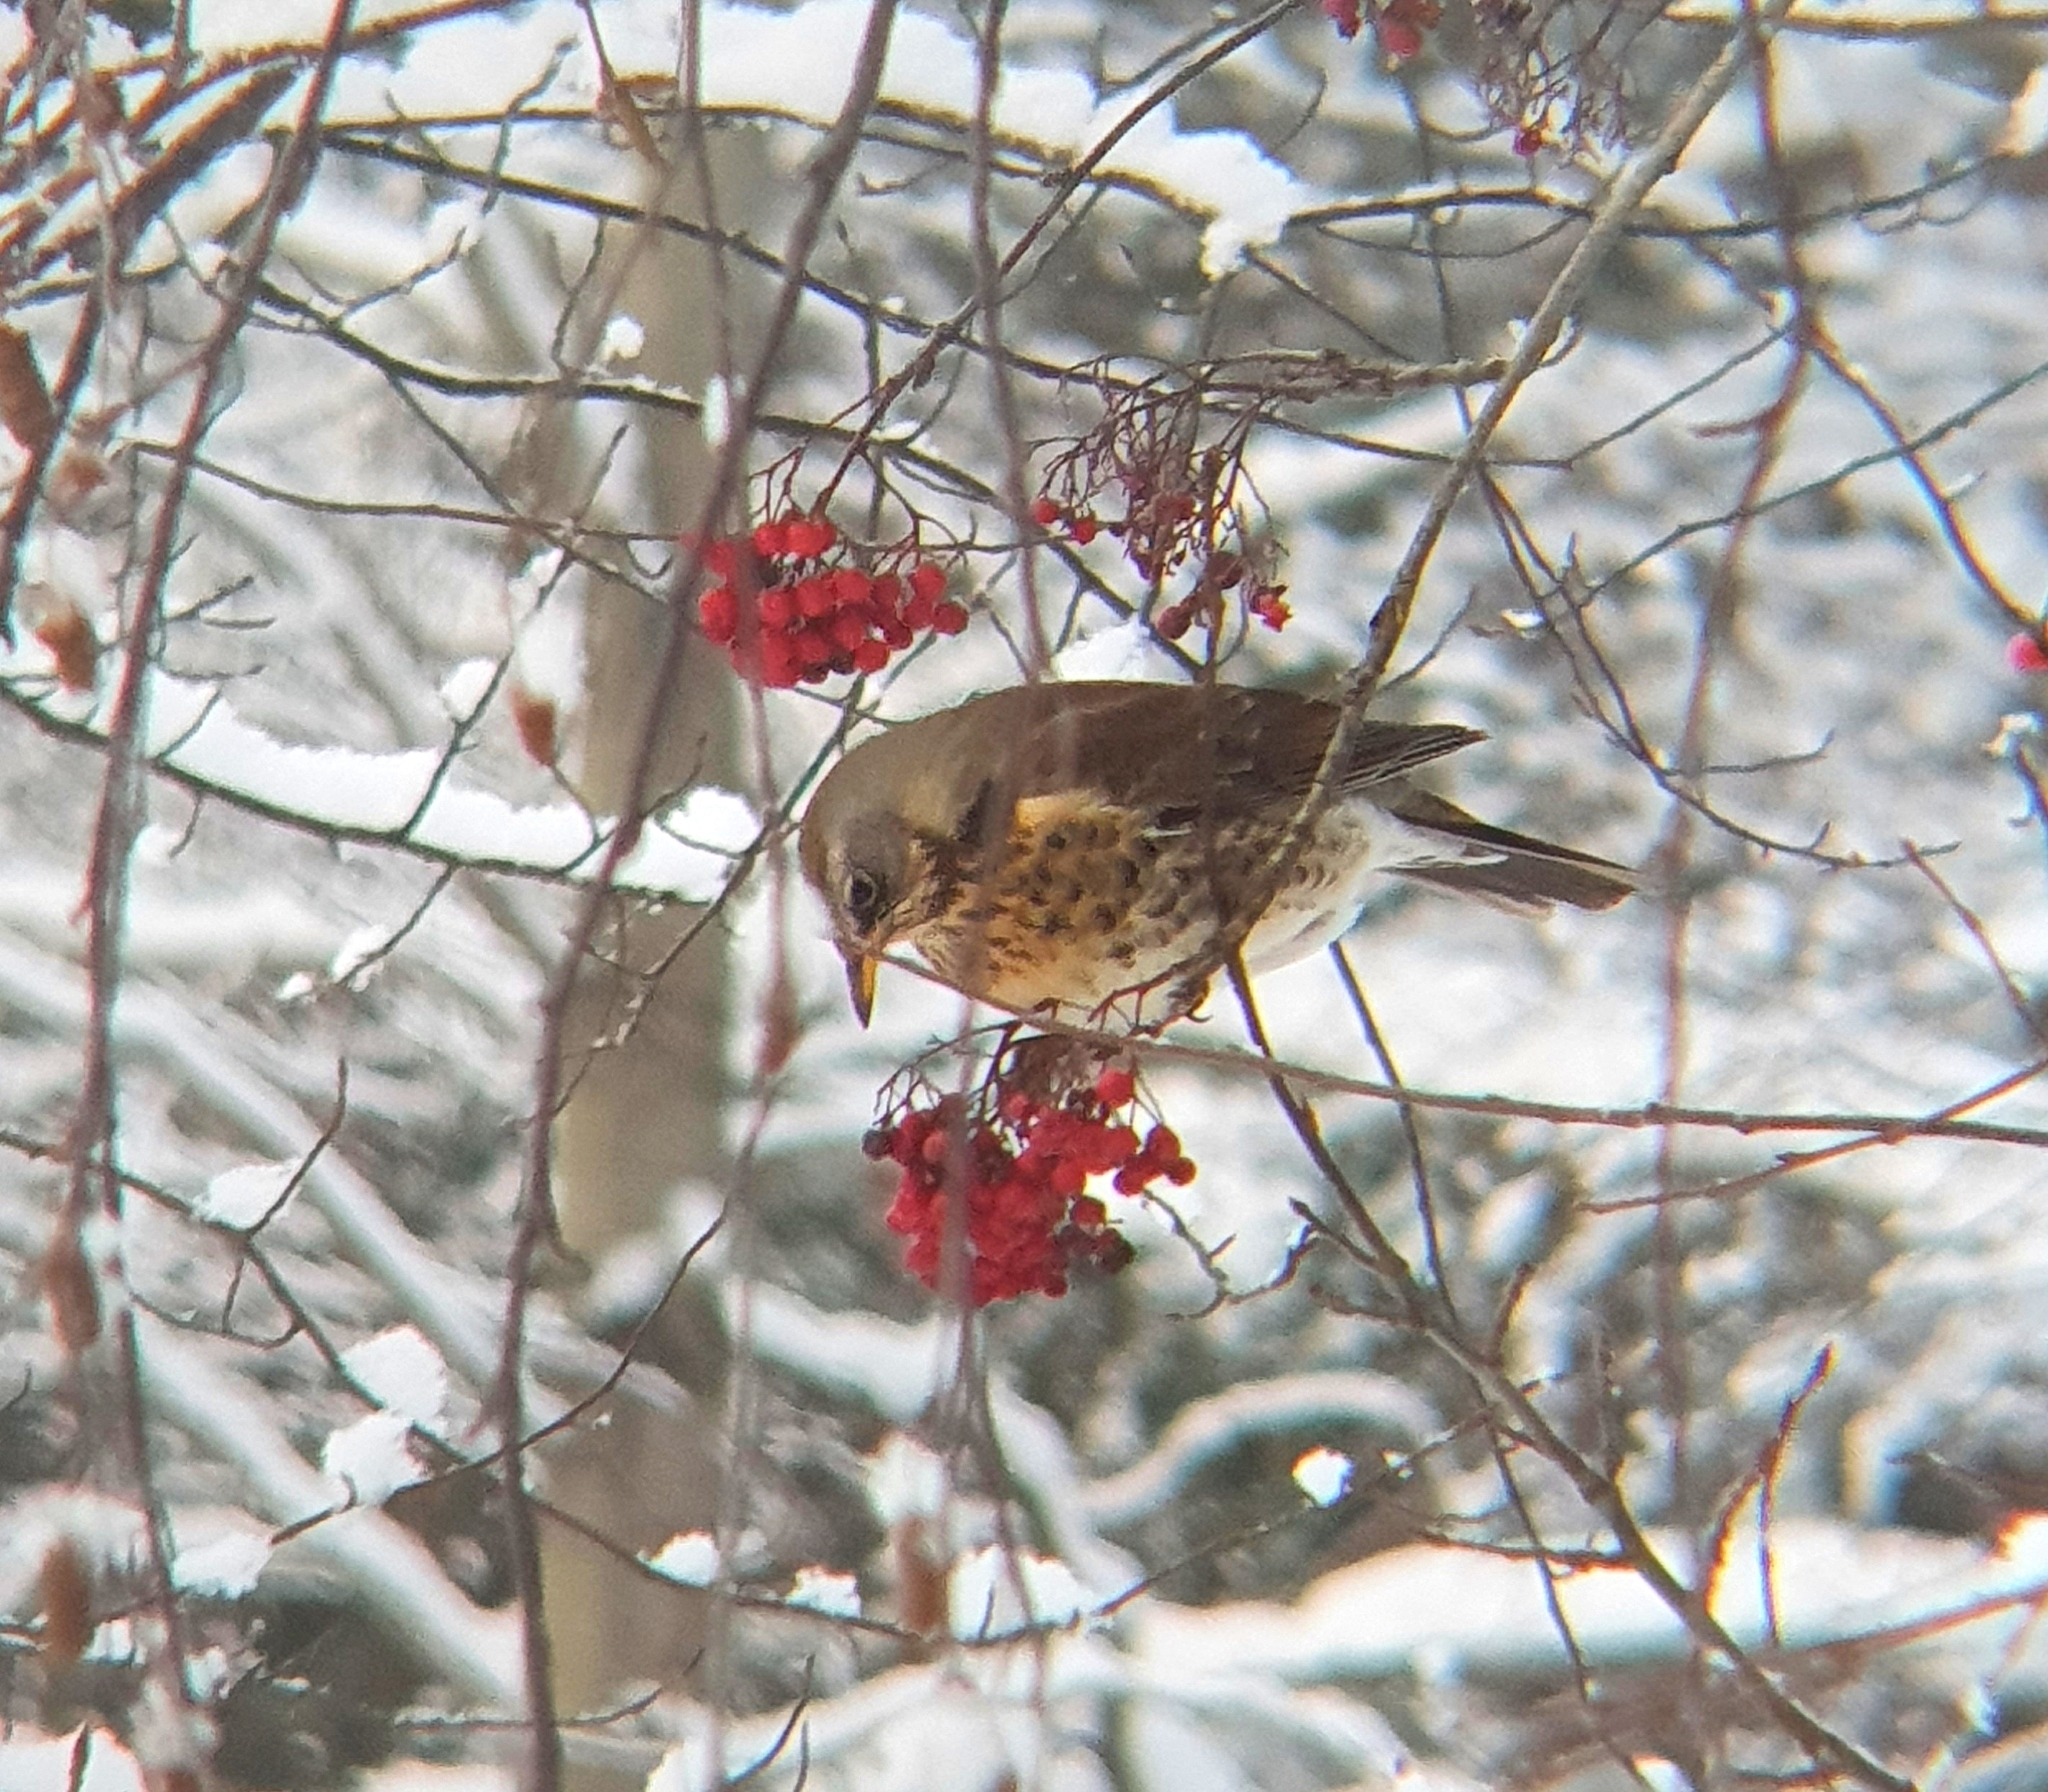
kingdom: Animalia
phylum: Chordata
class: Aves
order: Passeriformes
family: Turdidae
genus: Turdus
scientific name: Turdus pilaris
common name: Fieldfare
